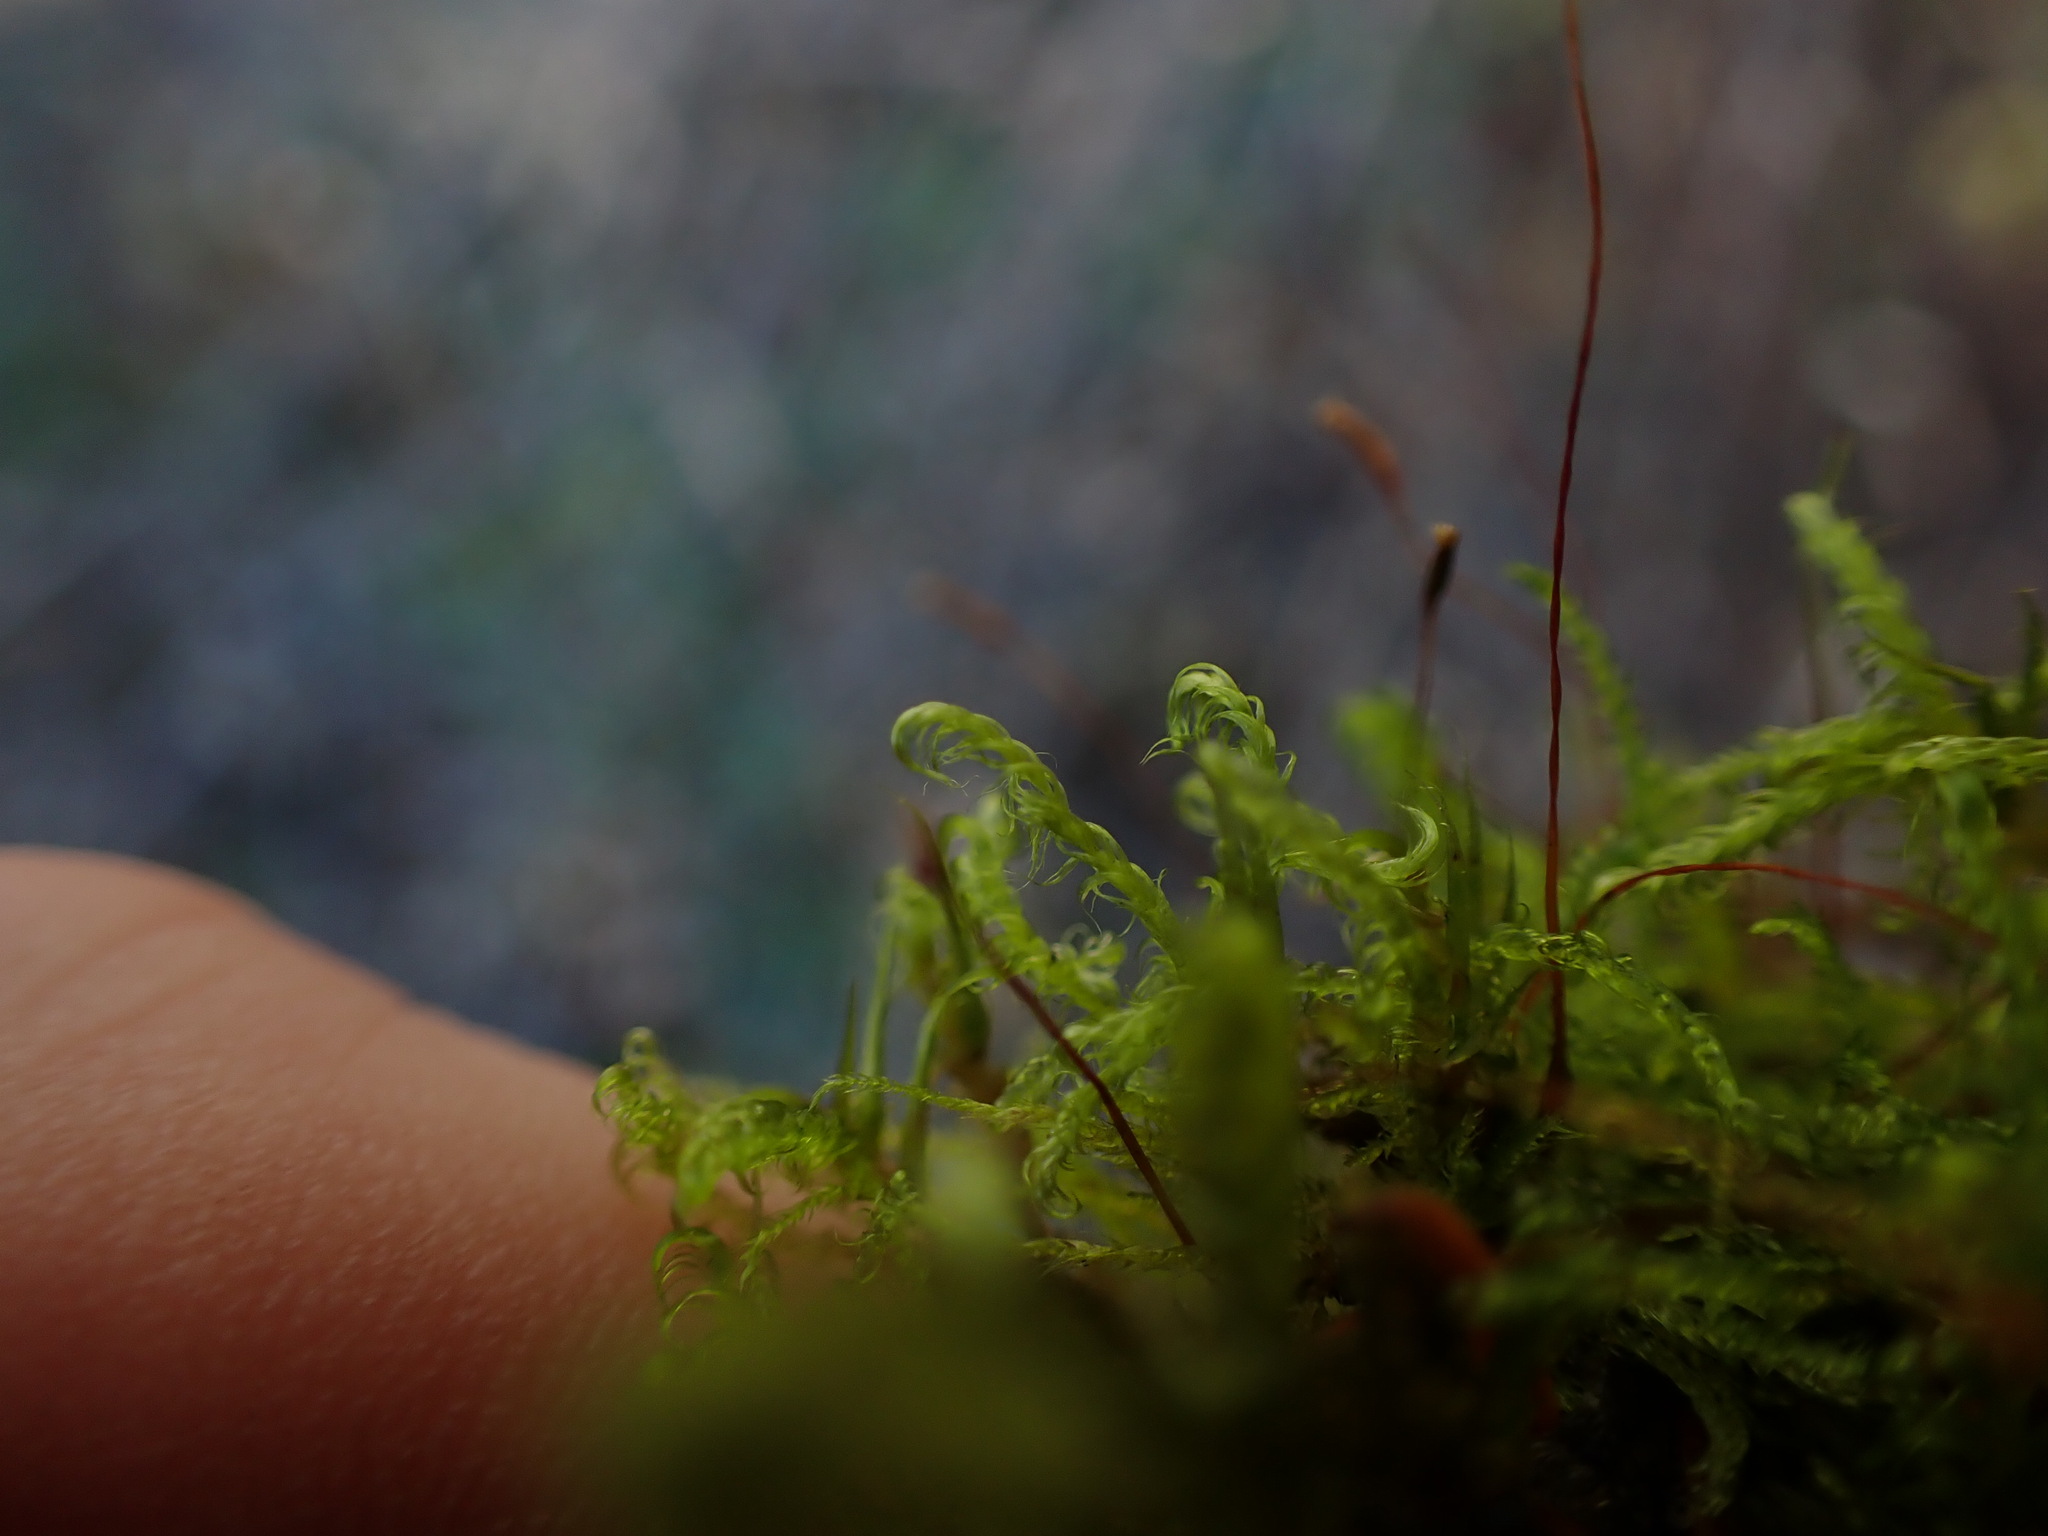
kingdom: Plantae
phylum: Bryophyta
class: Bryopsida
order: Hypnales
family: Scorpidiaceae
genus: Sanionia
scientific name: Sanionia uncinata
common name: Sickle moss
